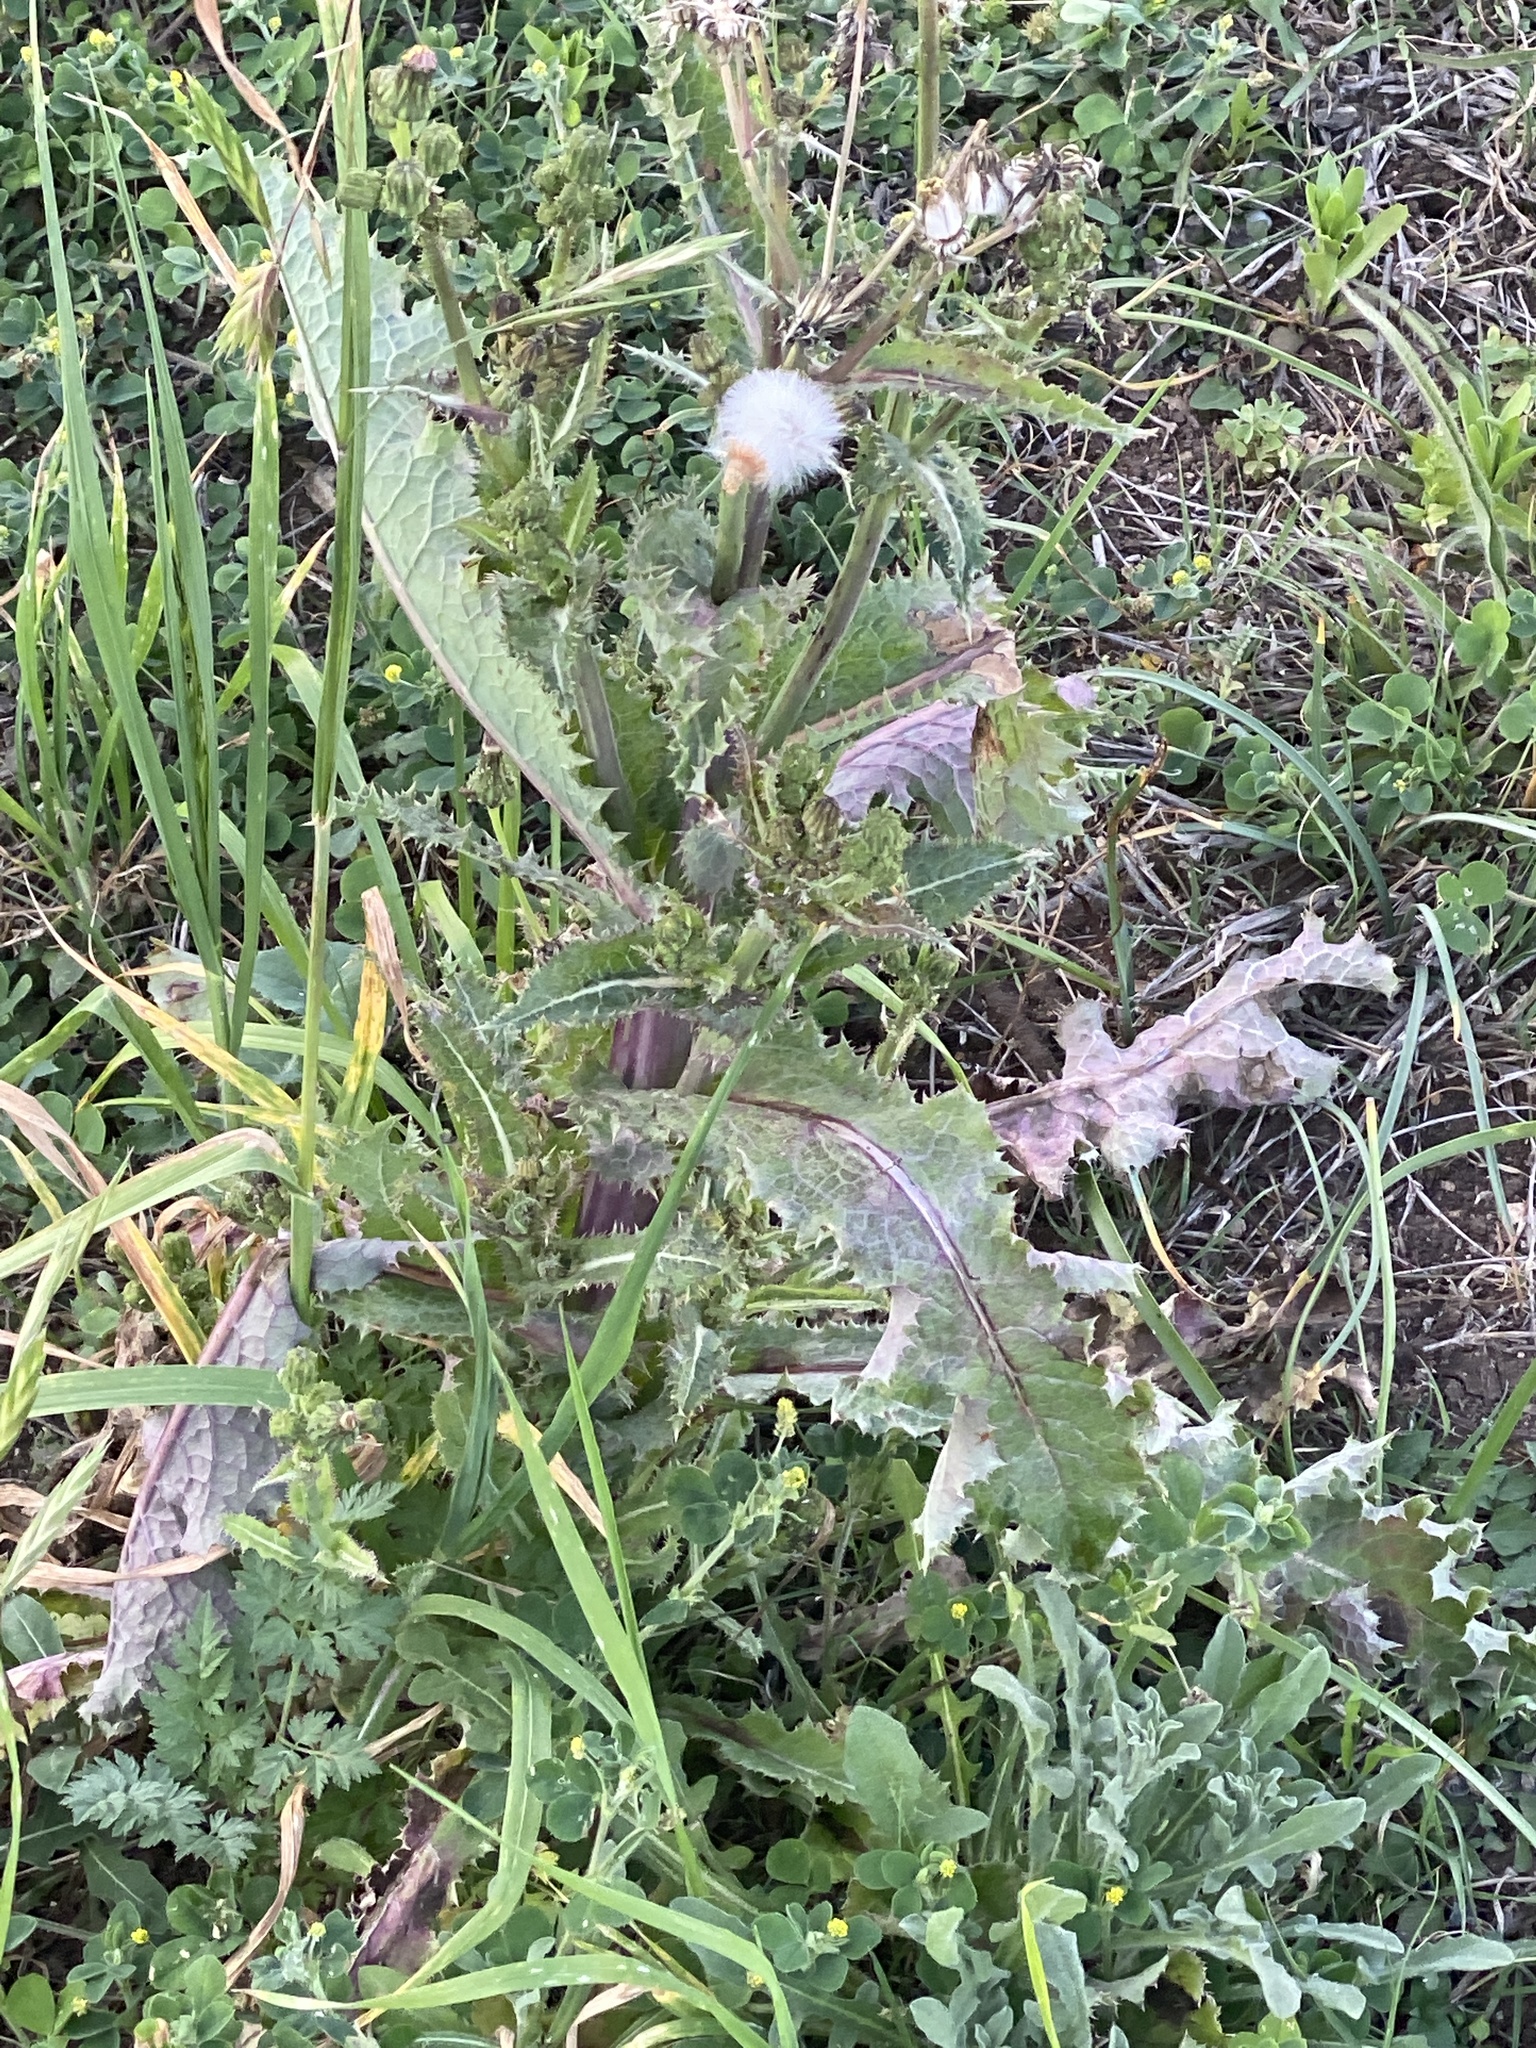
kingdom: Plantae
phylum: Tracheophyta
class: Magnoliopsida
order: Asterales
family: Asteraceae
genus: Sonchus
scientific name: Sonchus asper
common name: Prickly sow-thistle
